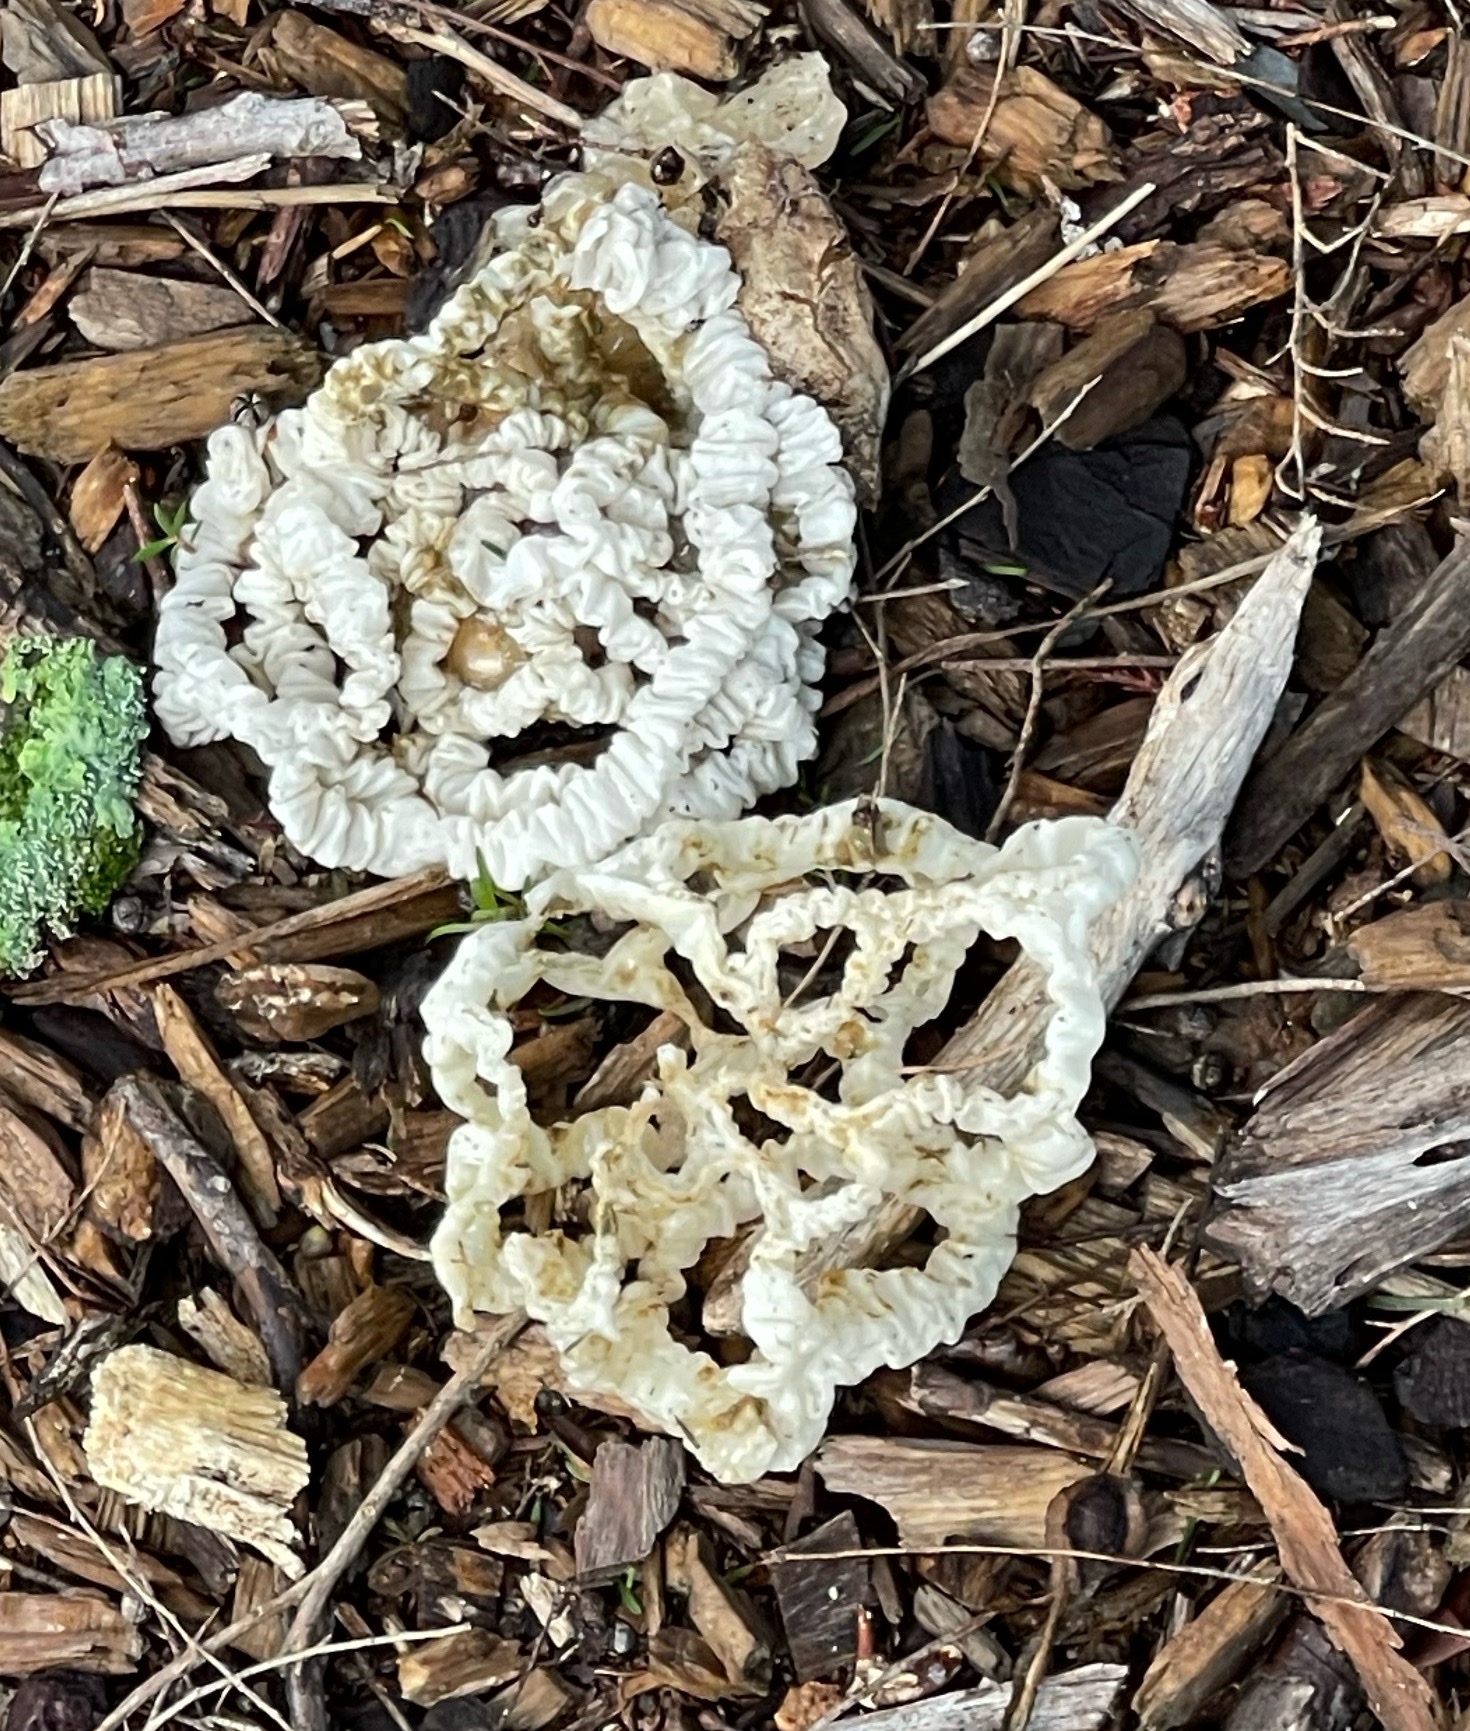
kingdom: Fungi
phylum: Basidiomycota
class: Agaricomycetes
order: Phallales
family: Phallaceae
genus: Ileodictyon
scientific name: Ileodictyon cibarium
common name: Basket fungus
